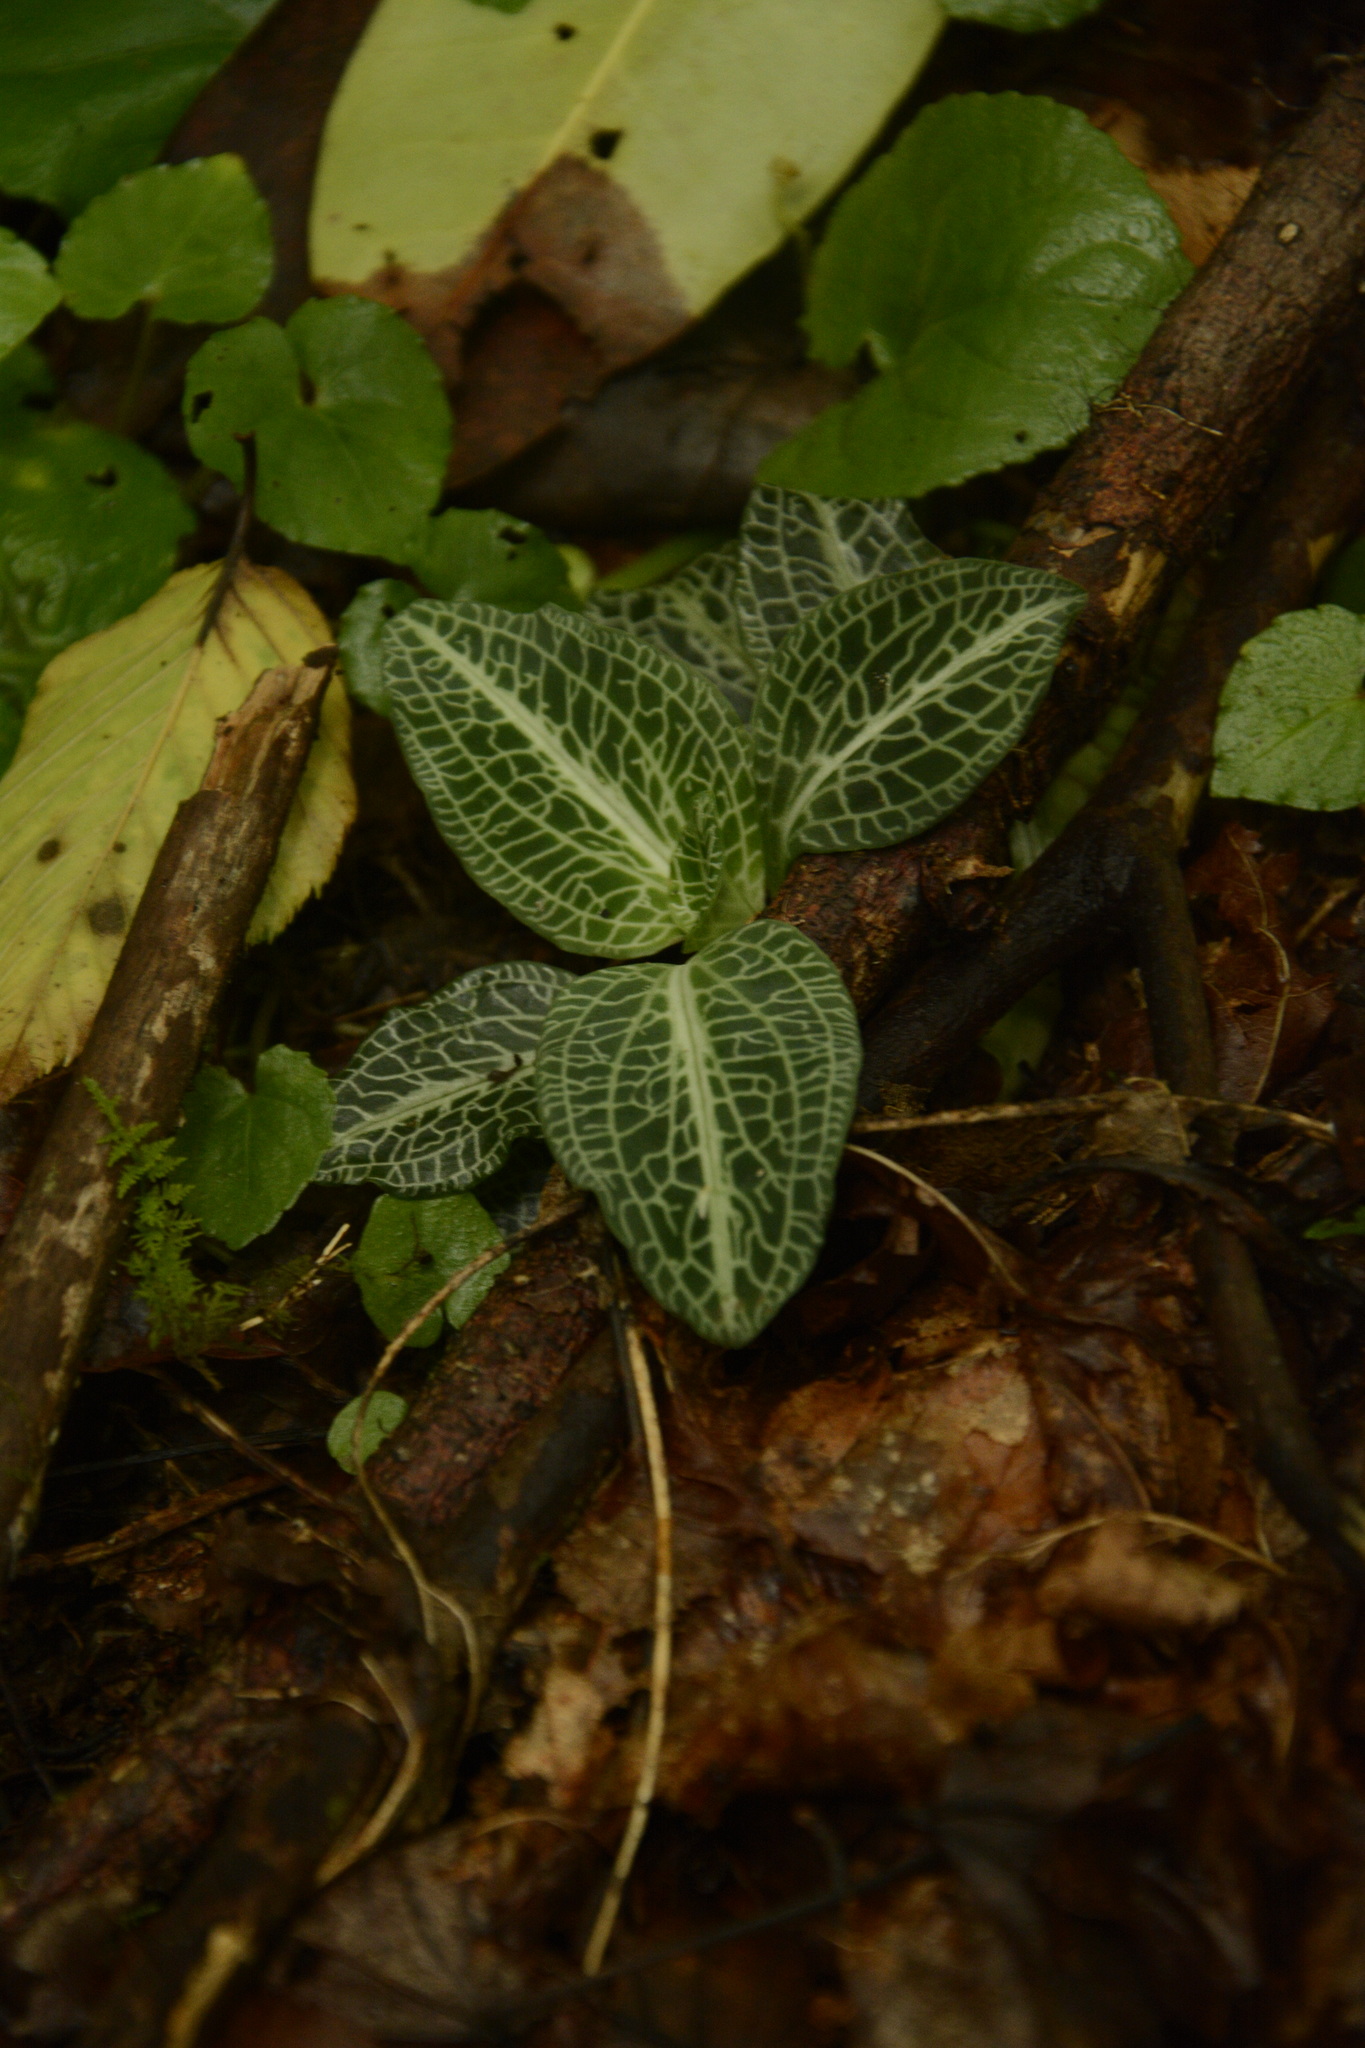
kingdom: Plantae
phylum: Tracheophyta
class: Liliopsida
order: Asparagales
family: Orchidaceae
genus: Goodyera
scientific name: Goodyera pubescens
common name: Downy rattlesnake-plantain
